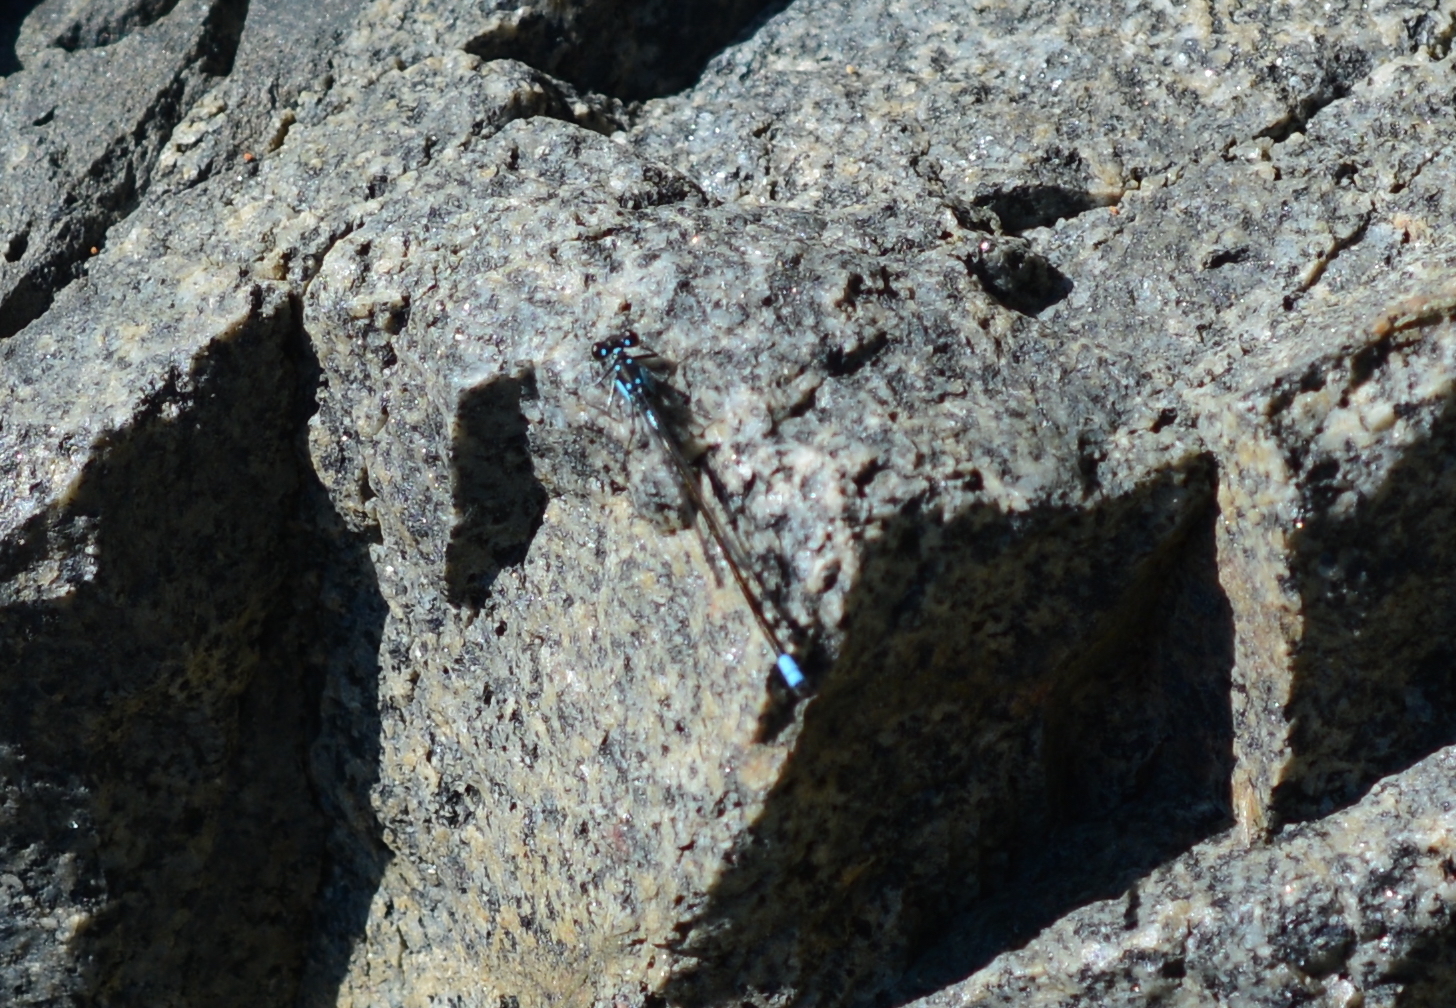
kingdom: Animalia
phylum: Arthropoda
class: Insecta
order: Odonata
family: Coenagrionidae
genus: Ischnura
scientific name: Ischnura cervula
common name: Pacific forktail
